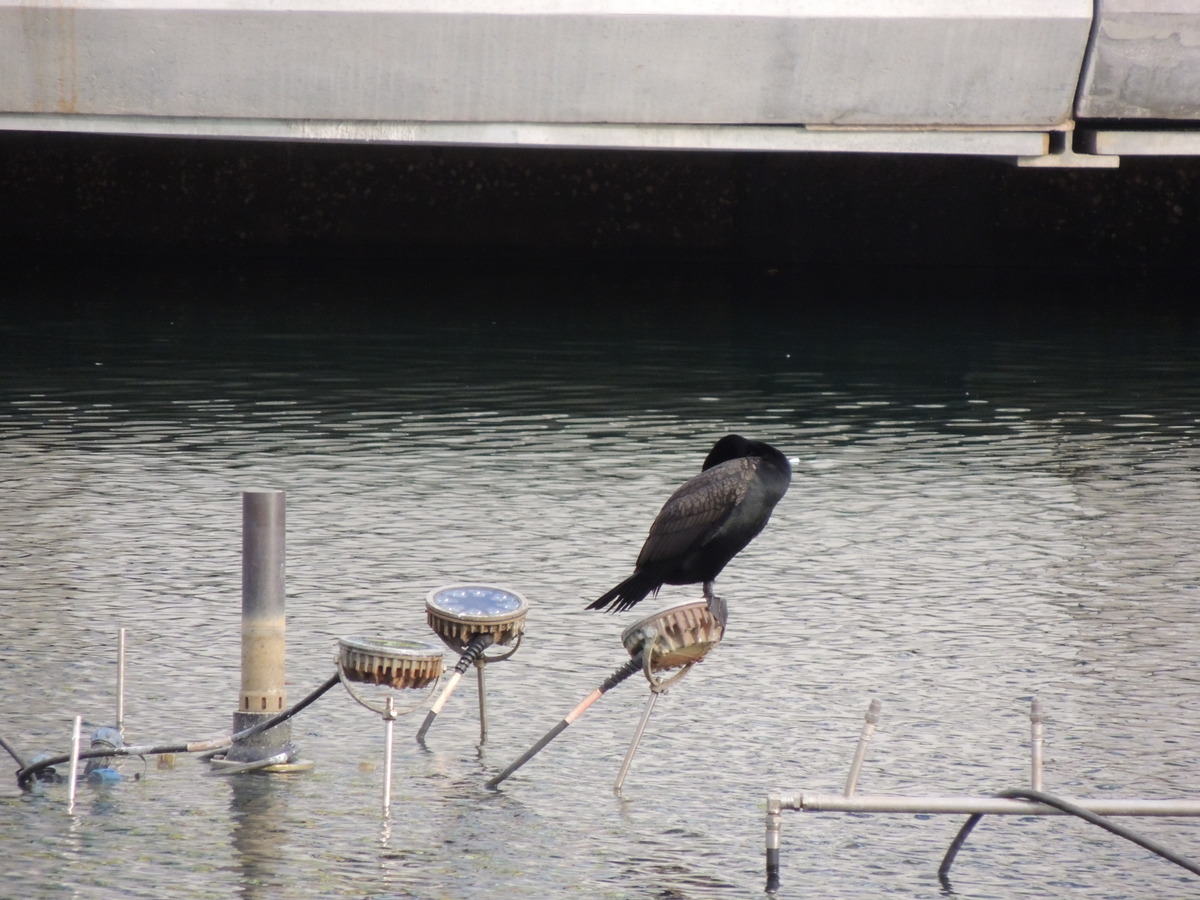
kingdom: Animalia
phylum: Chordata
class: Aves
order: Suliformes
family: Phalacrocoracidae
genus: Phalacrocorax
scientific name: Phalacrocorax auritus
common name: Double-crested cormorant
